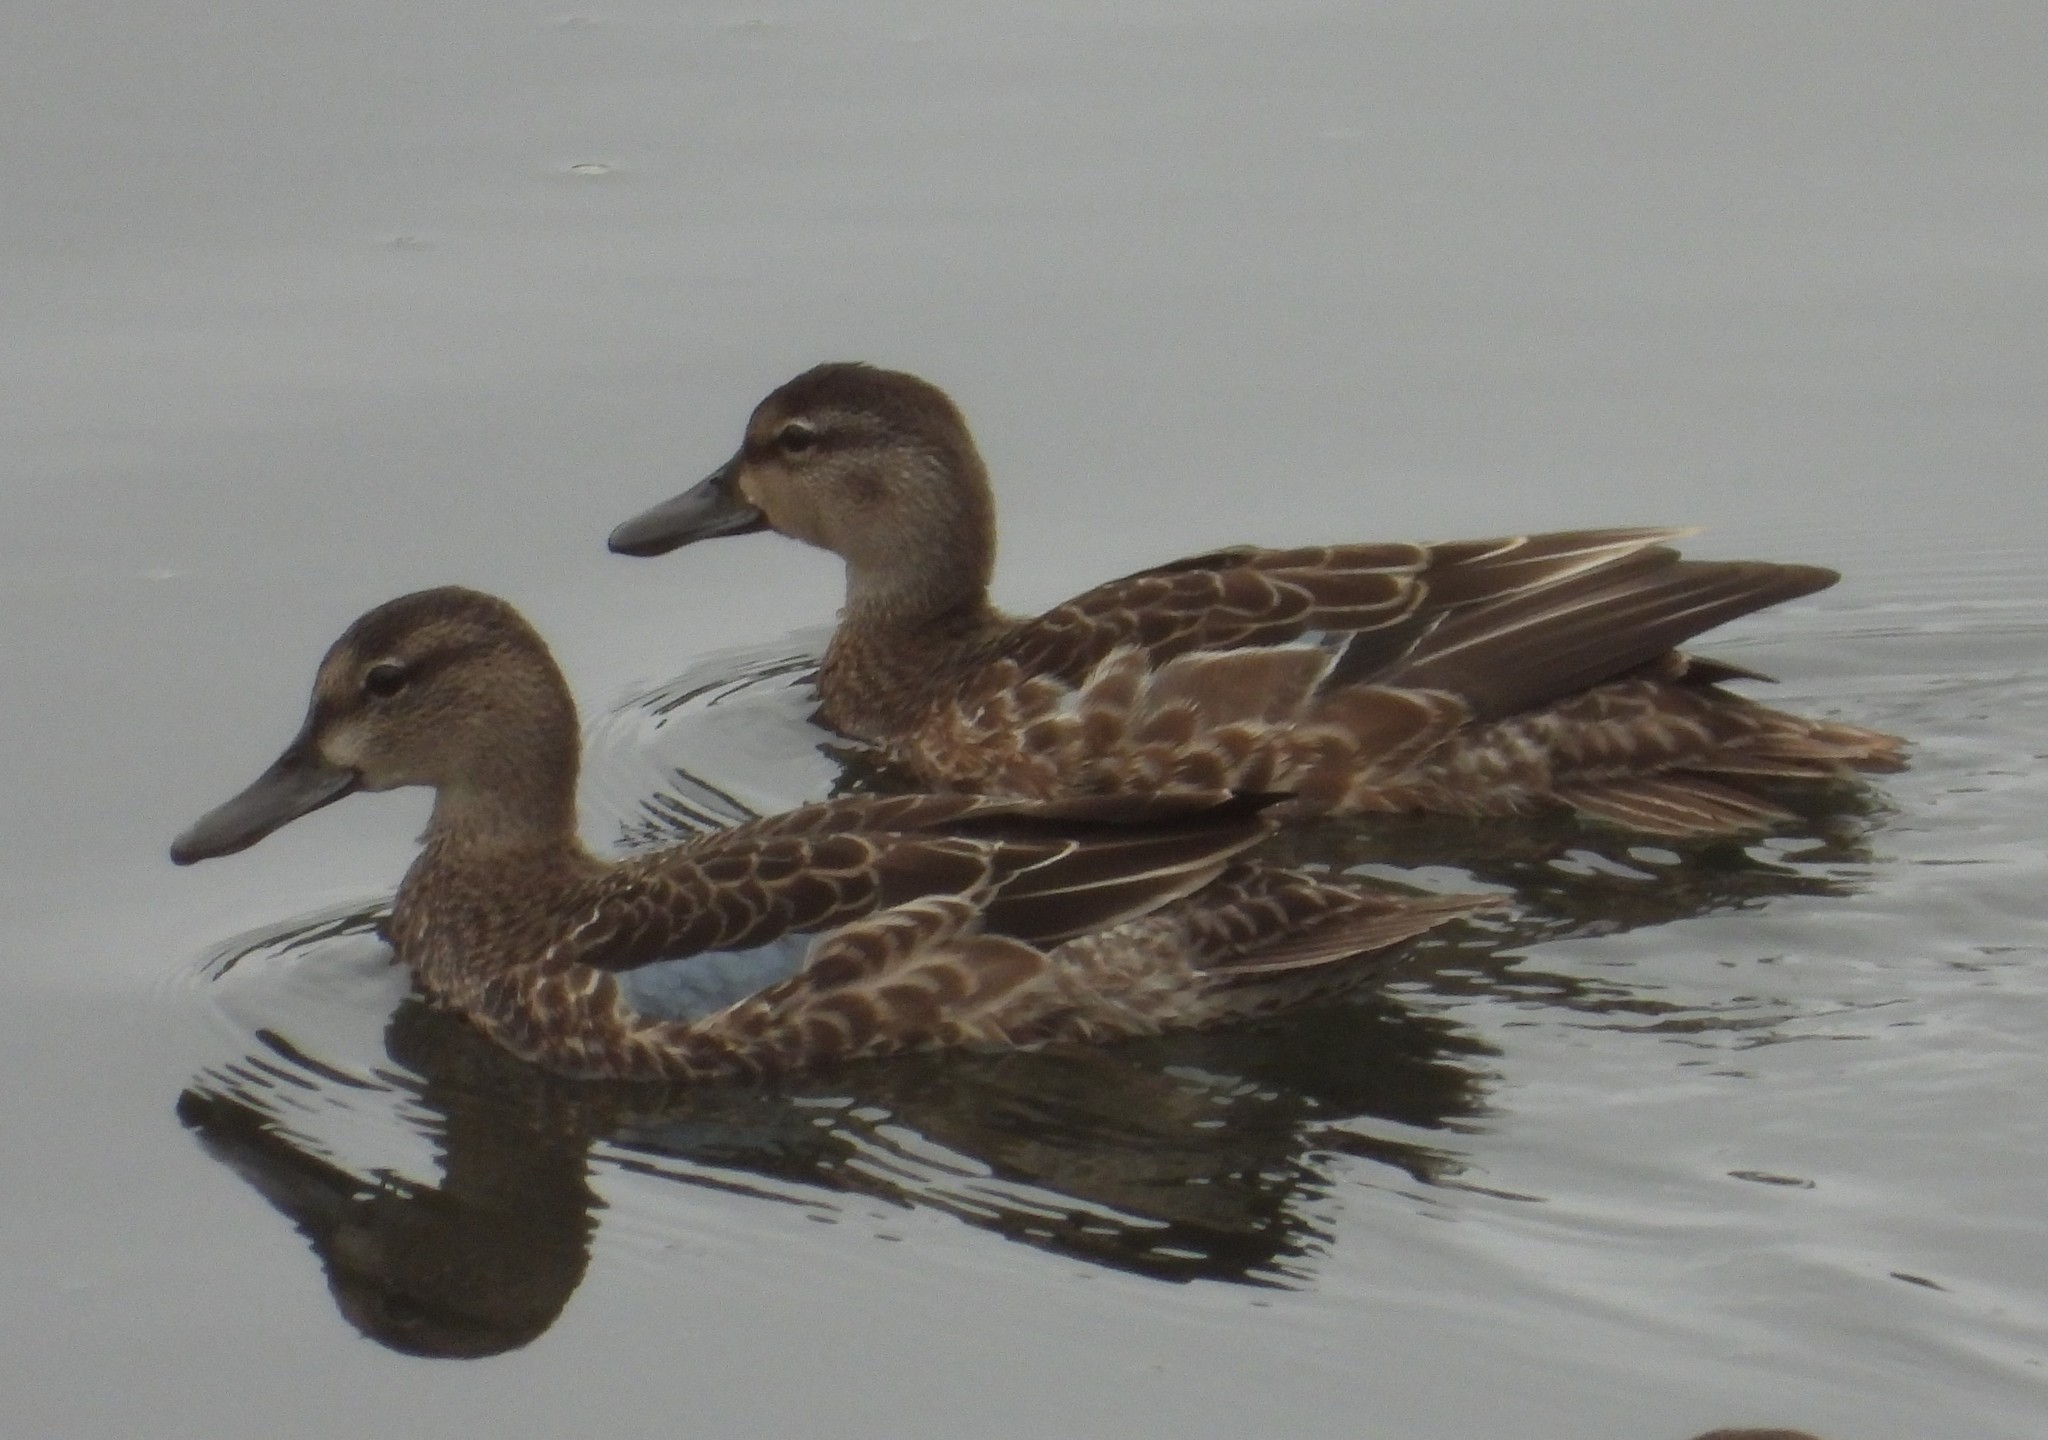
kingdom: Animalia
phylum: Chordata
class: Aves
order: Anseriformes
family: Anatidae
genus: Spatula
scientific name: Spatula discors
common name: Blue-winged teal
